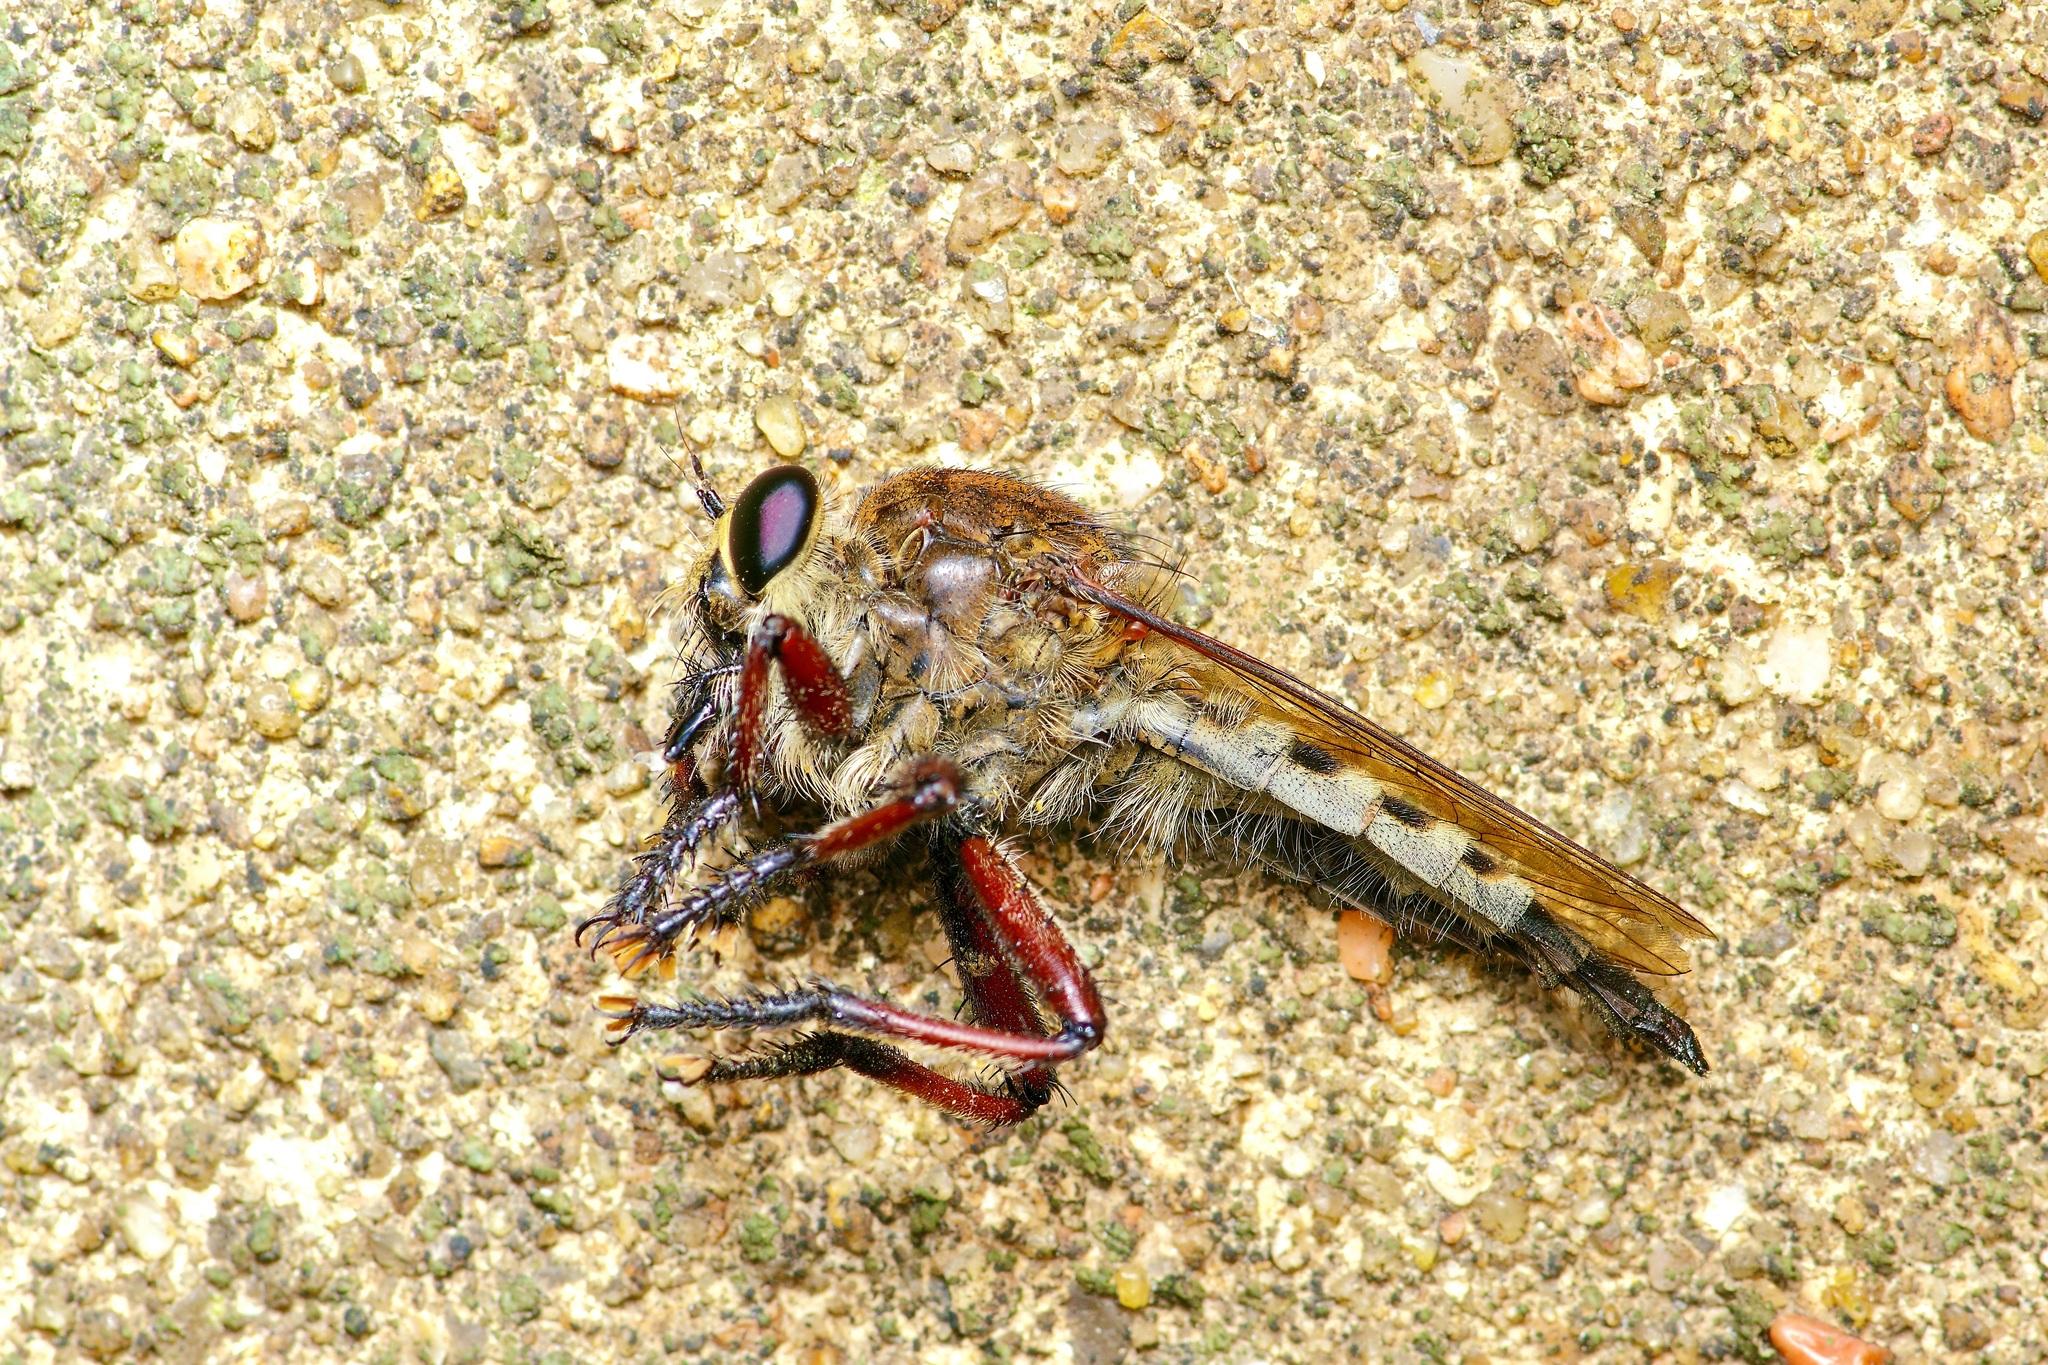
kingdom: Animalia
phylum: Arthropoda
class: Insecta
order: Diptera
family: Asilidae
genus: Promachus
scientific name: Promachus hinei
